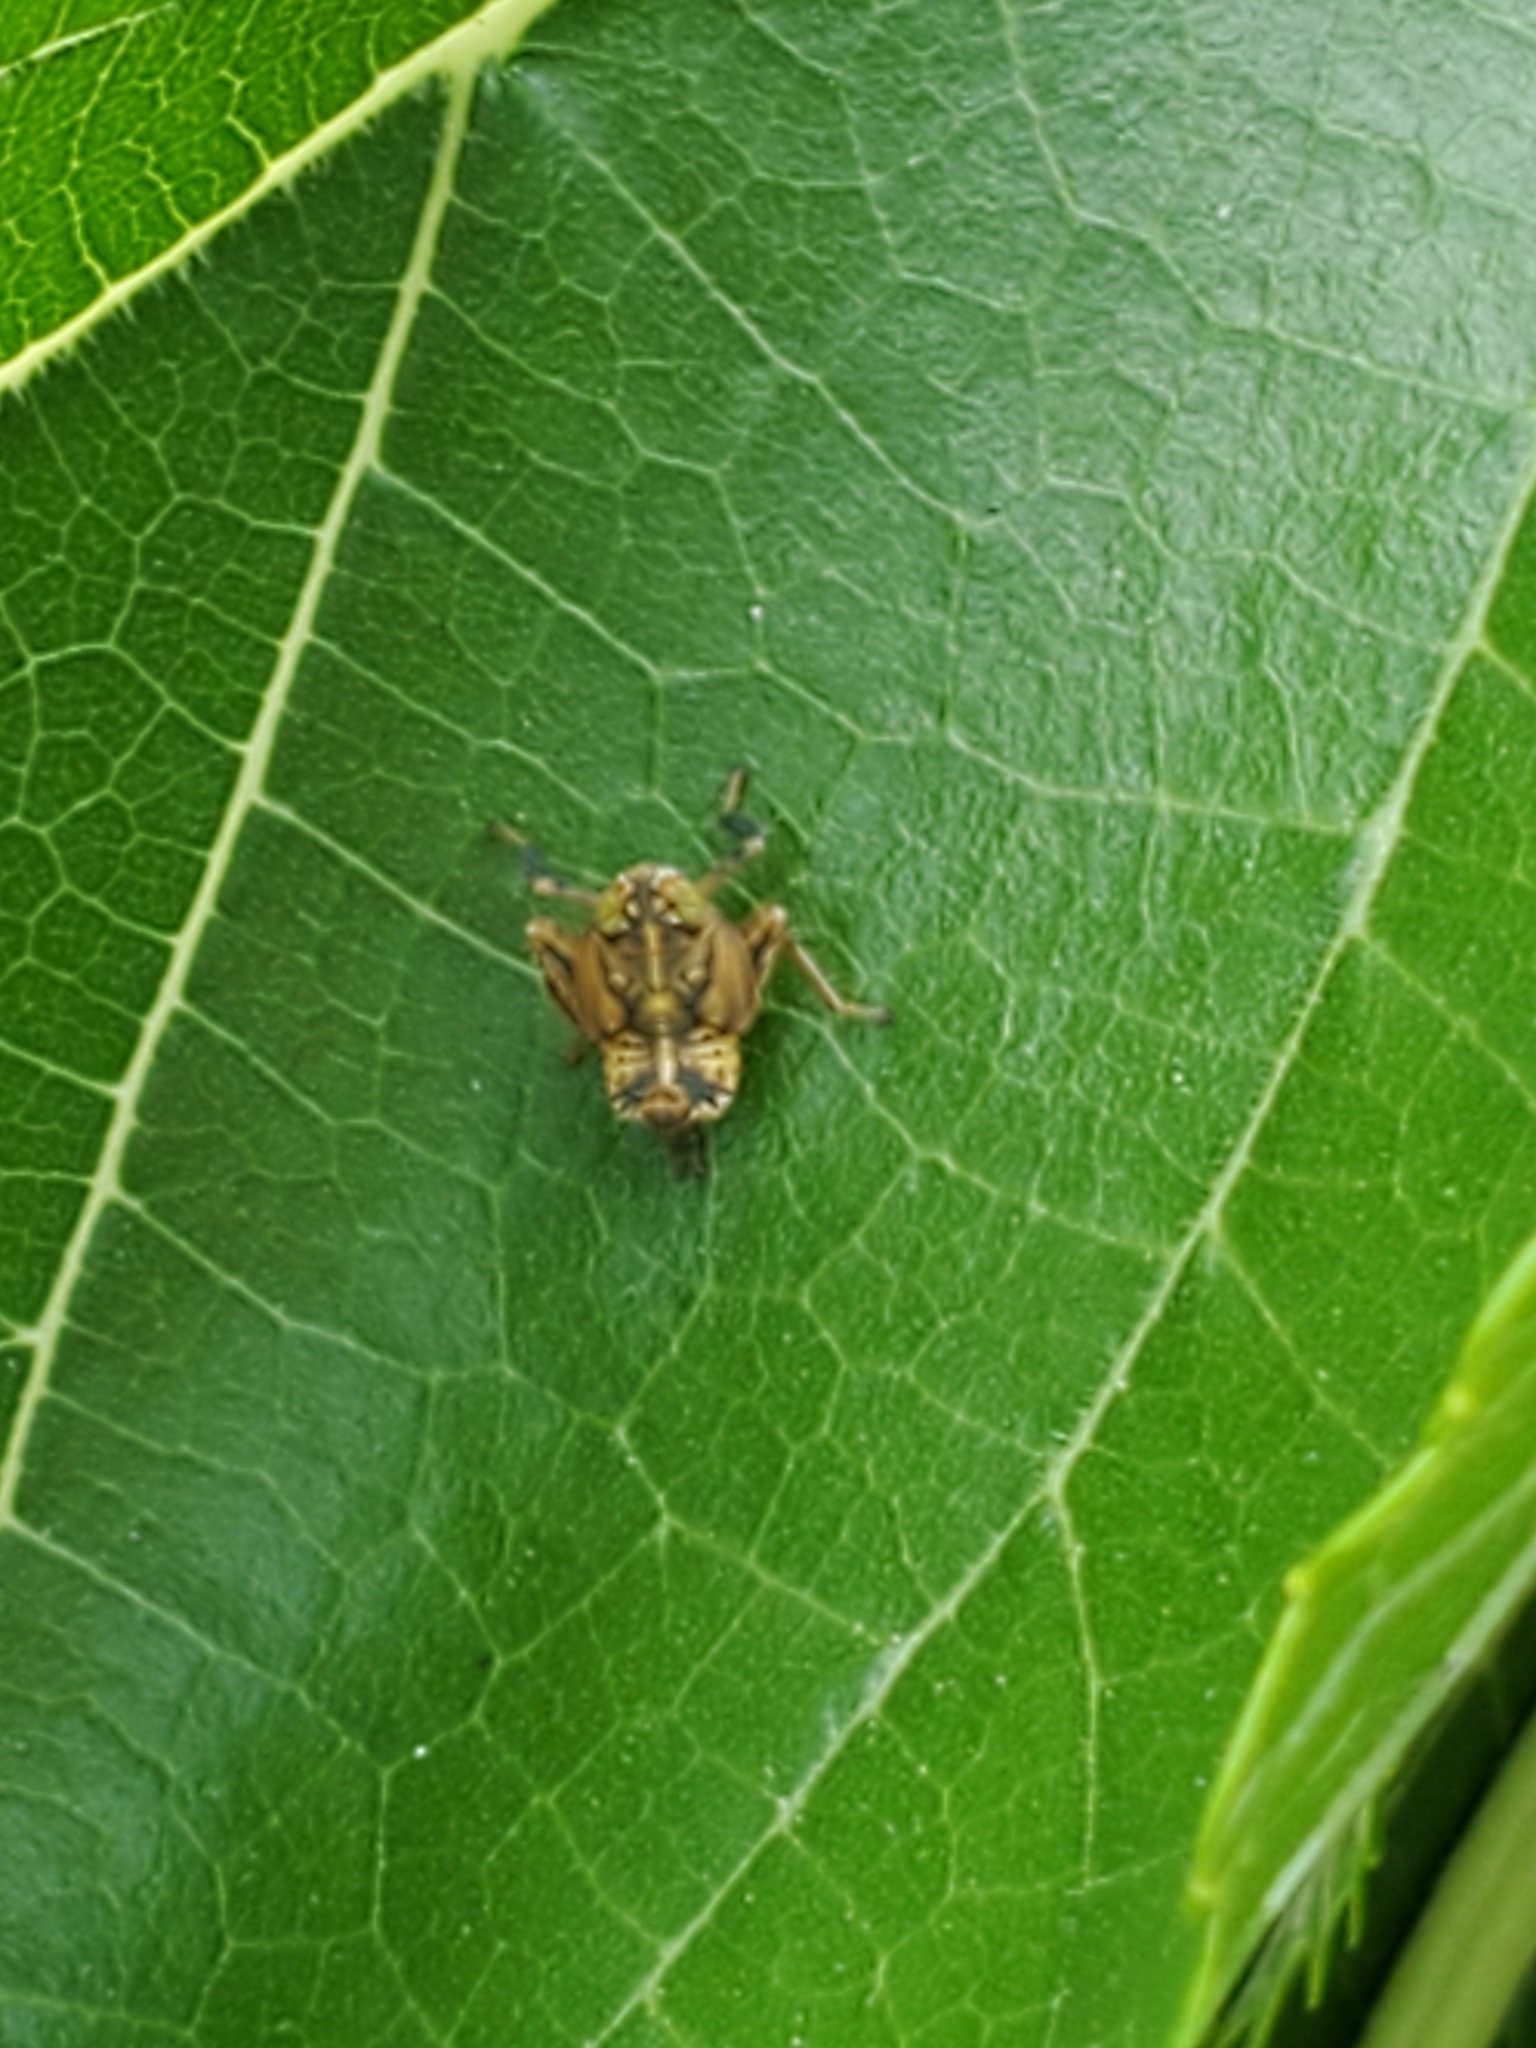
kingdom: Animalia
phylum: Arthropoda
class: Insecta
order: Hemiptera
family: Cicadellidae
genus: Jikradia
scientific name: Jikradia olitoria
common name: Coppery leafhopper
